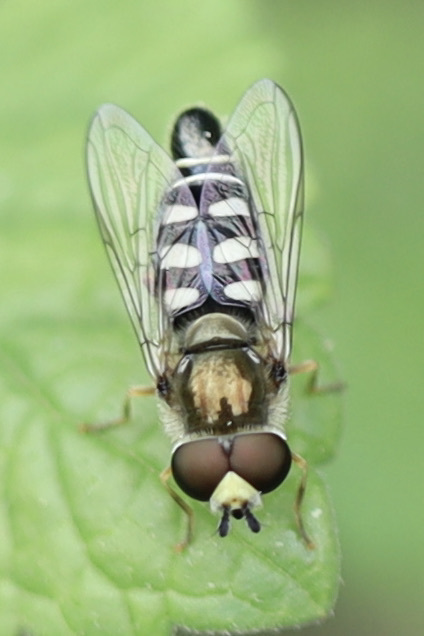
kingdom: Animalia
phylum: Arthropoda
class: Insecta
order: Diptera
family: Syrphidae
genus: Eupeodes
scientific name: Eupeodes volucris
